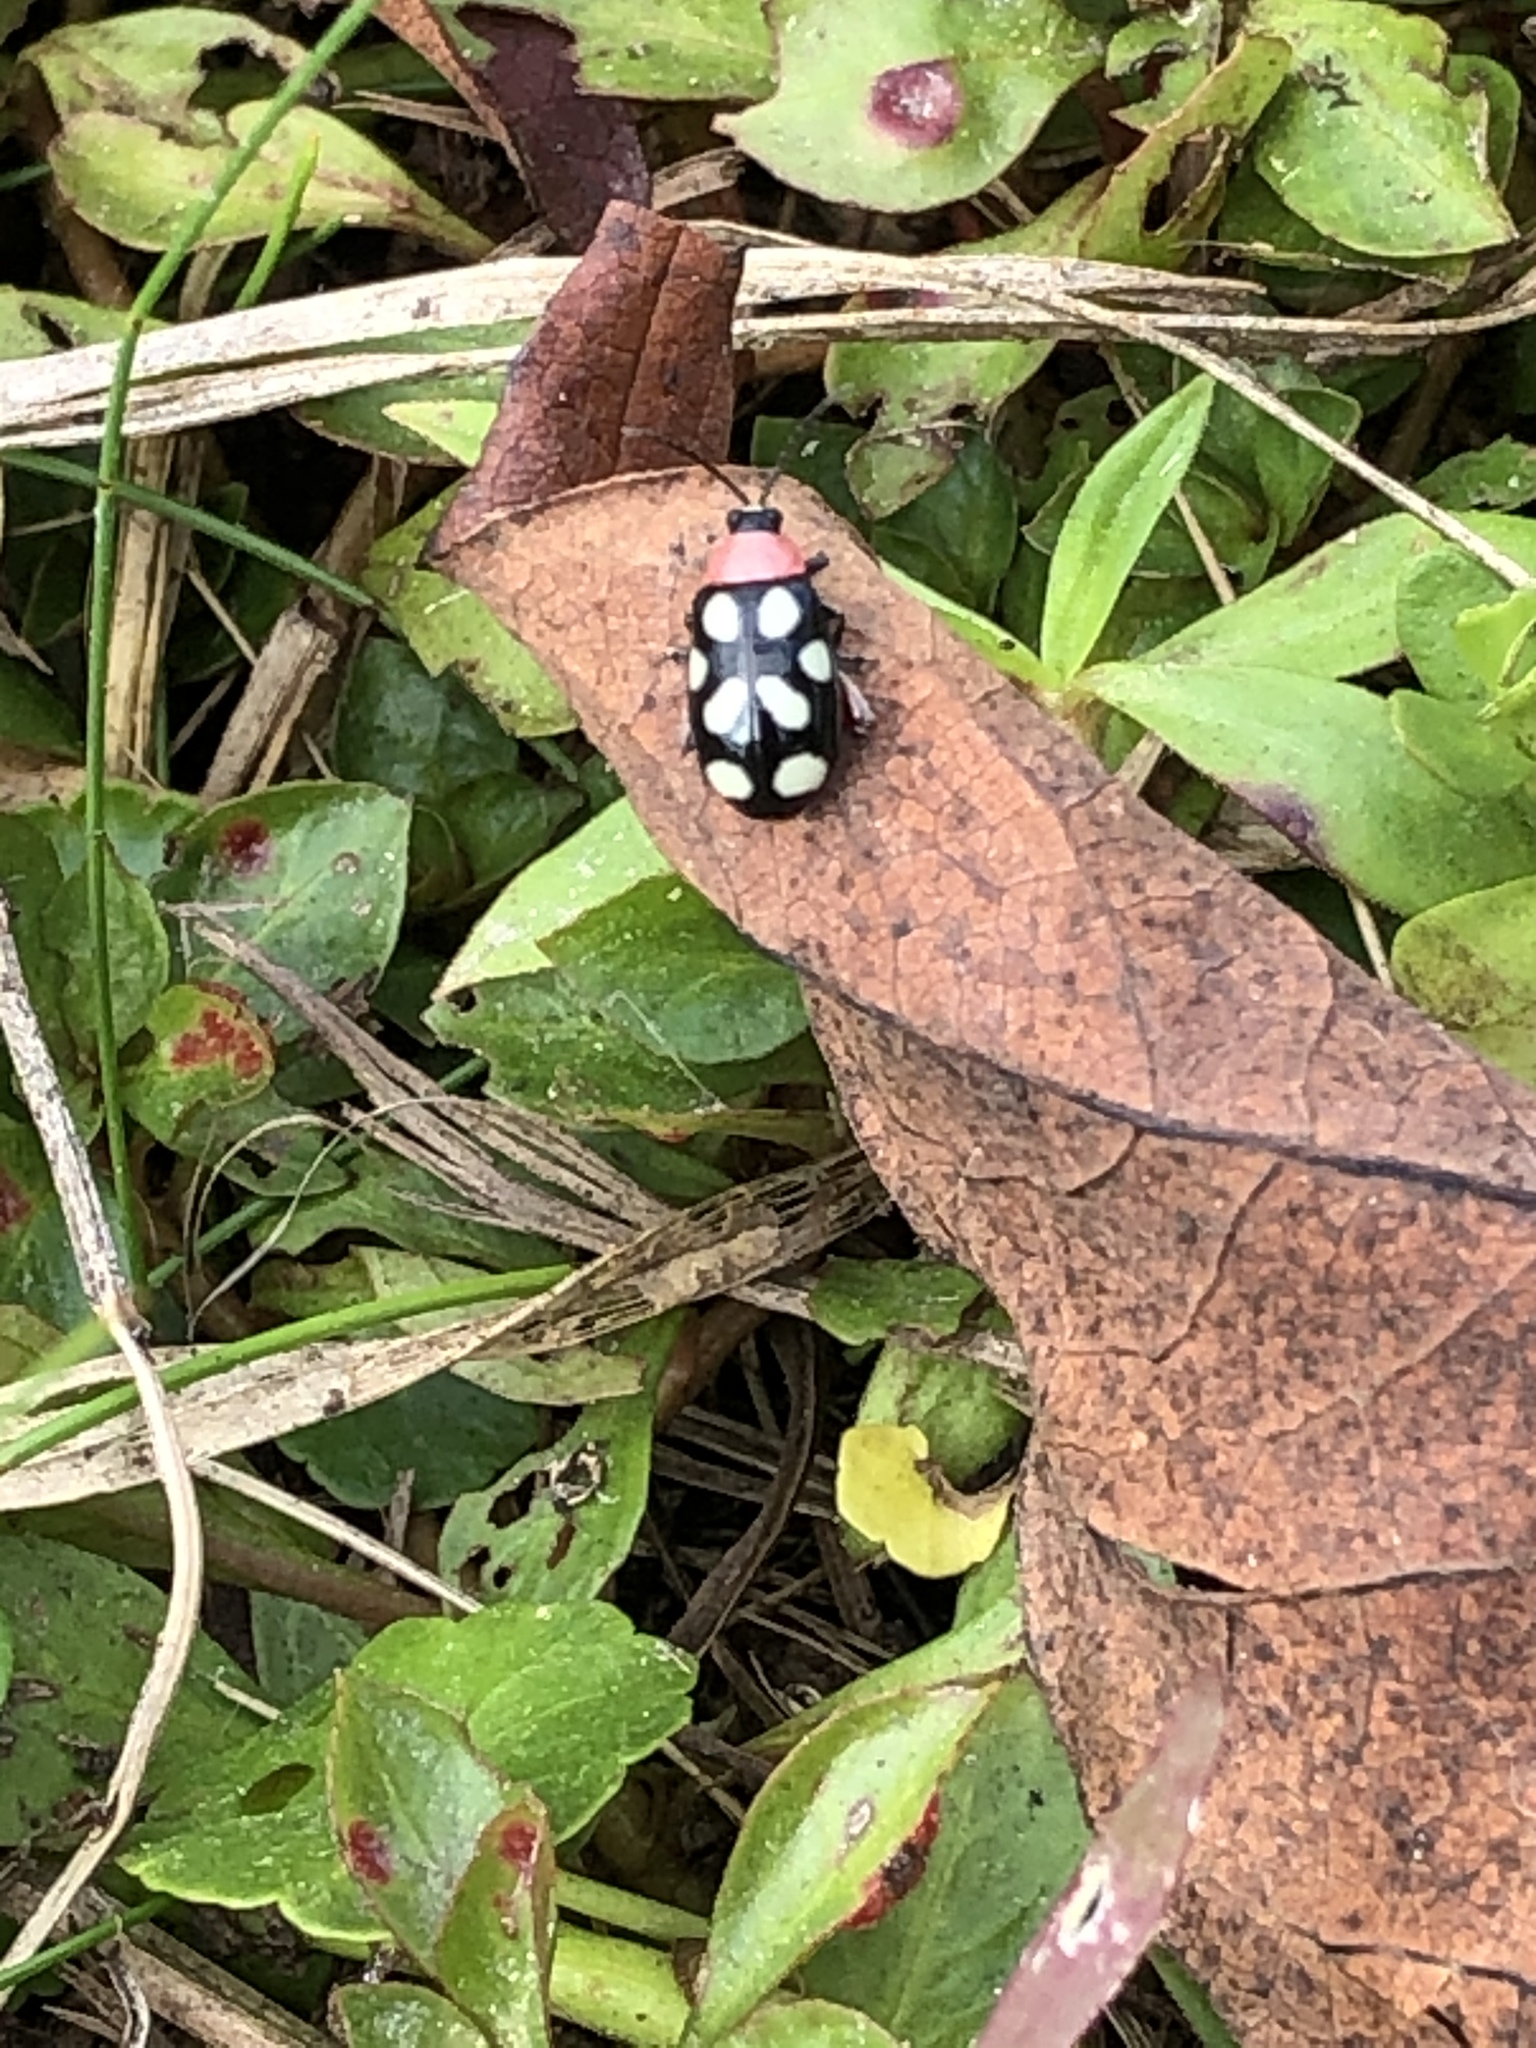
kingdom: Animalia
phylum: Arthropoda
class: Insecta
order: Coleoptera
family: Chrysomelidae
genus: Omophoita
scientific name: Omophoita cyanipennis
